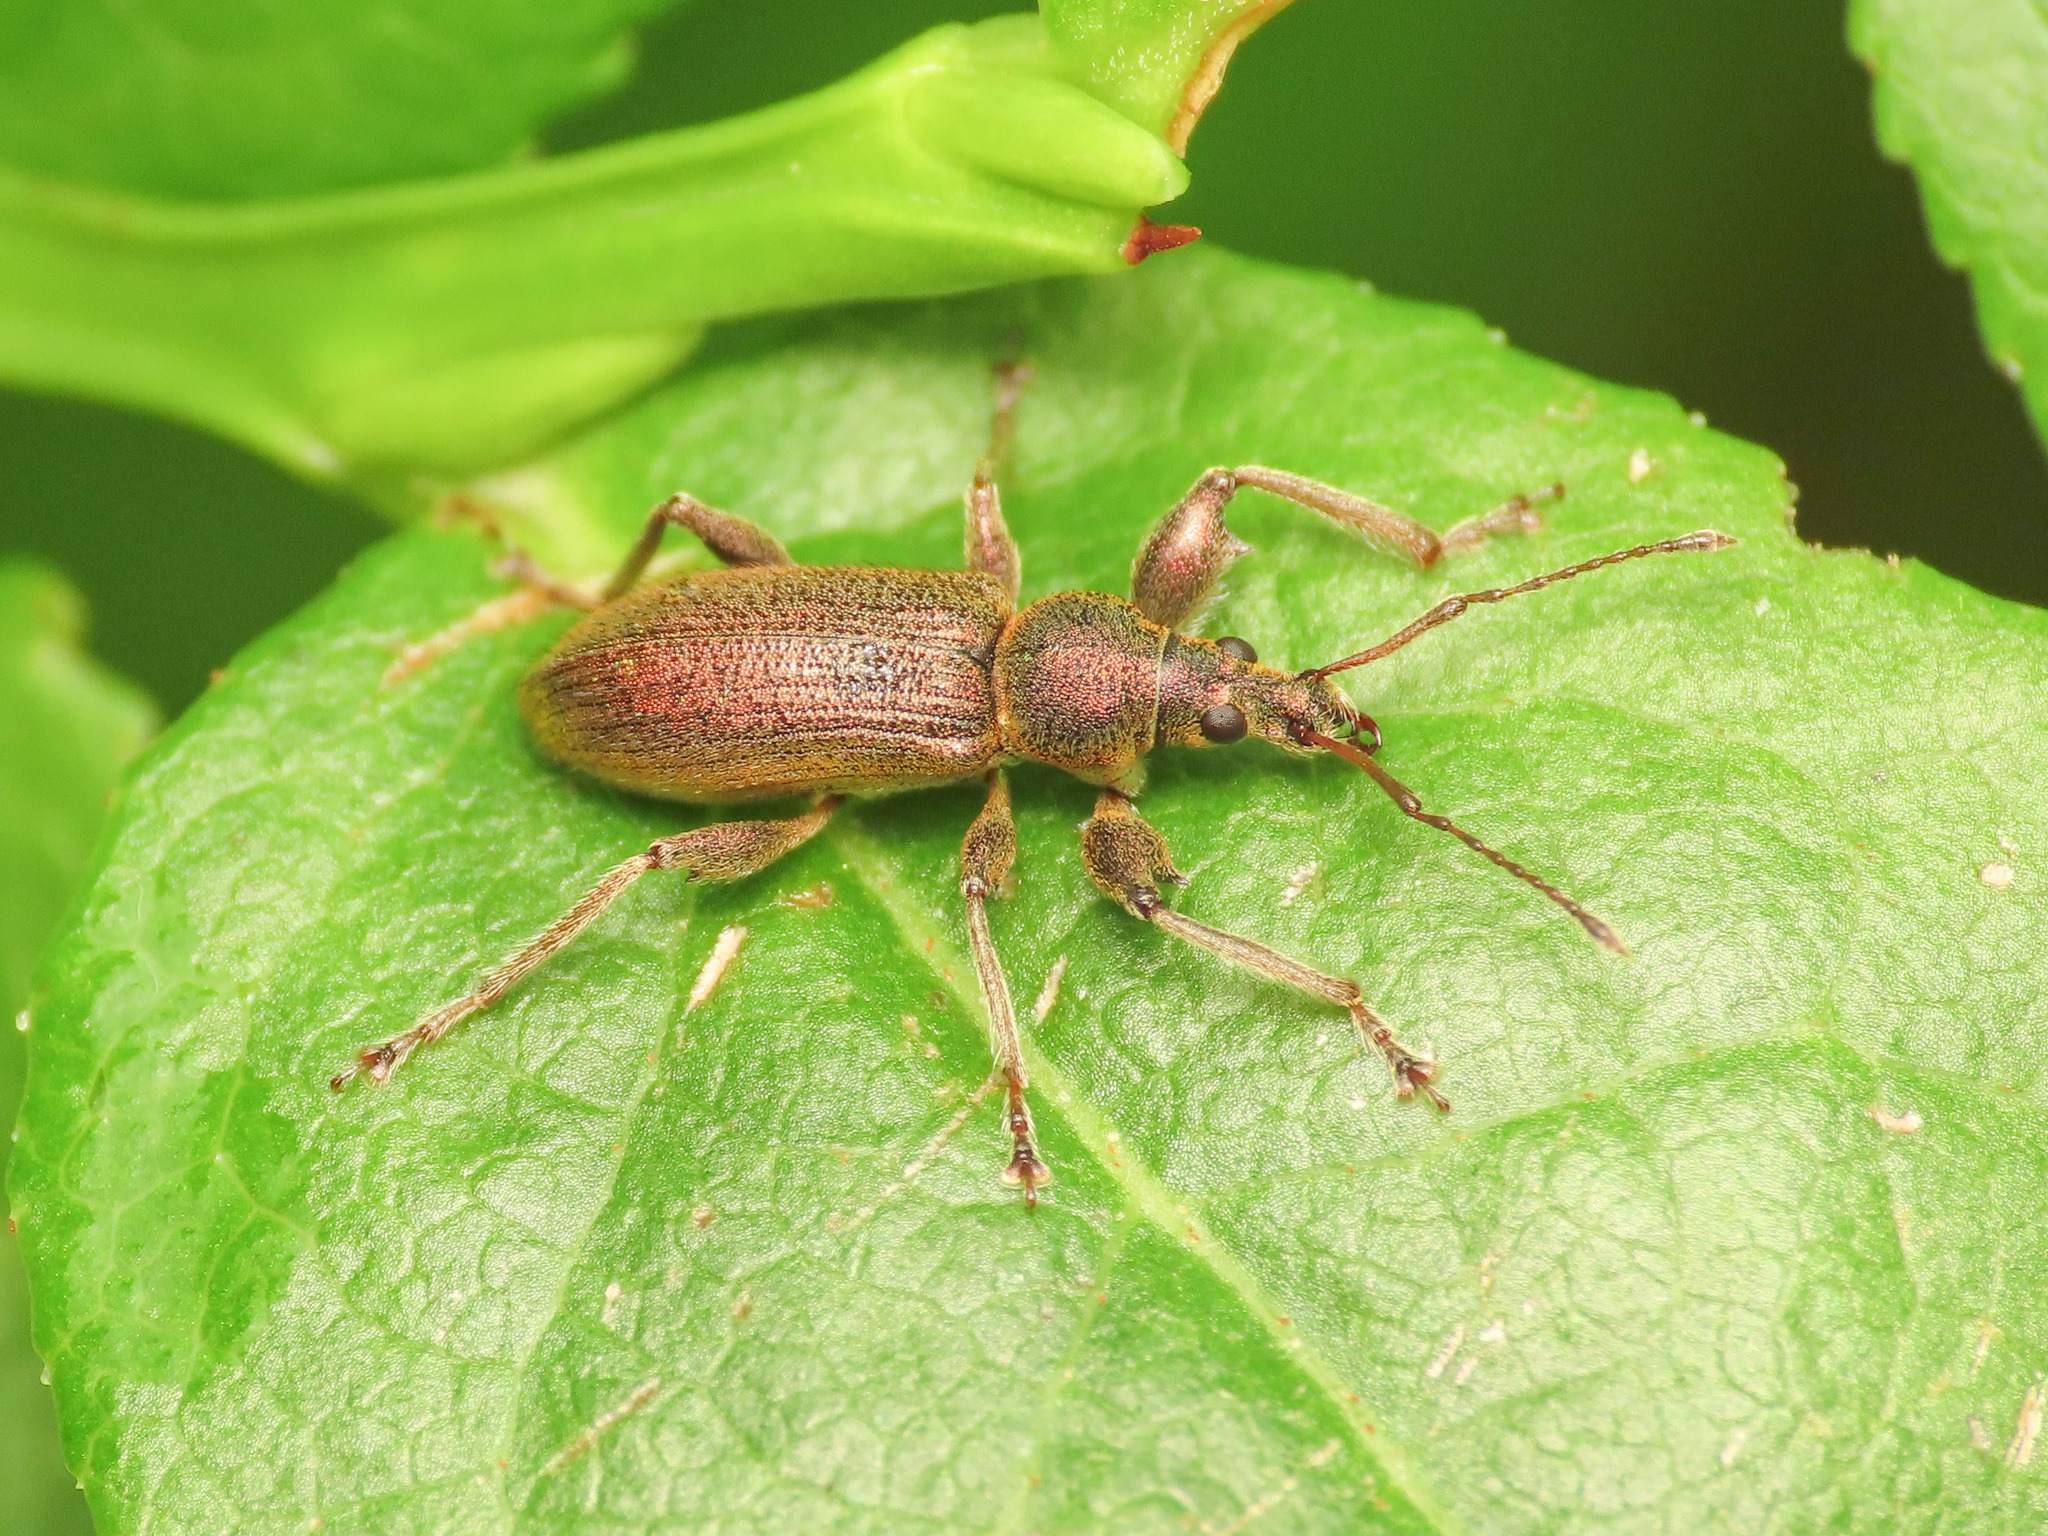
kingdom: Animalia
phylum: Arthropoda
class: Insecta
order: Coleoptera
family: Curculionidae
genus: Phyllobius
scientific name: Phyllobius arborator
